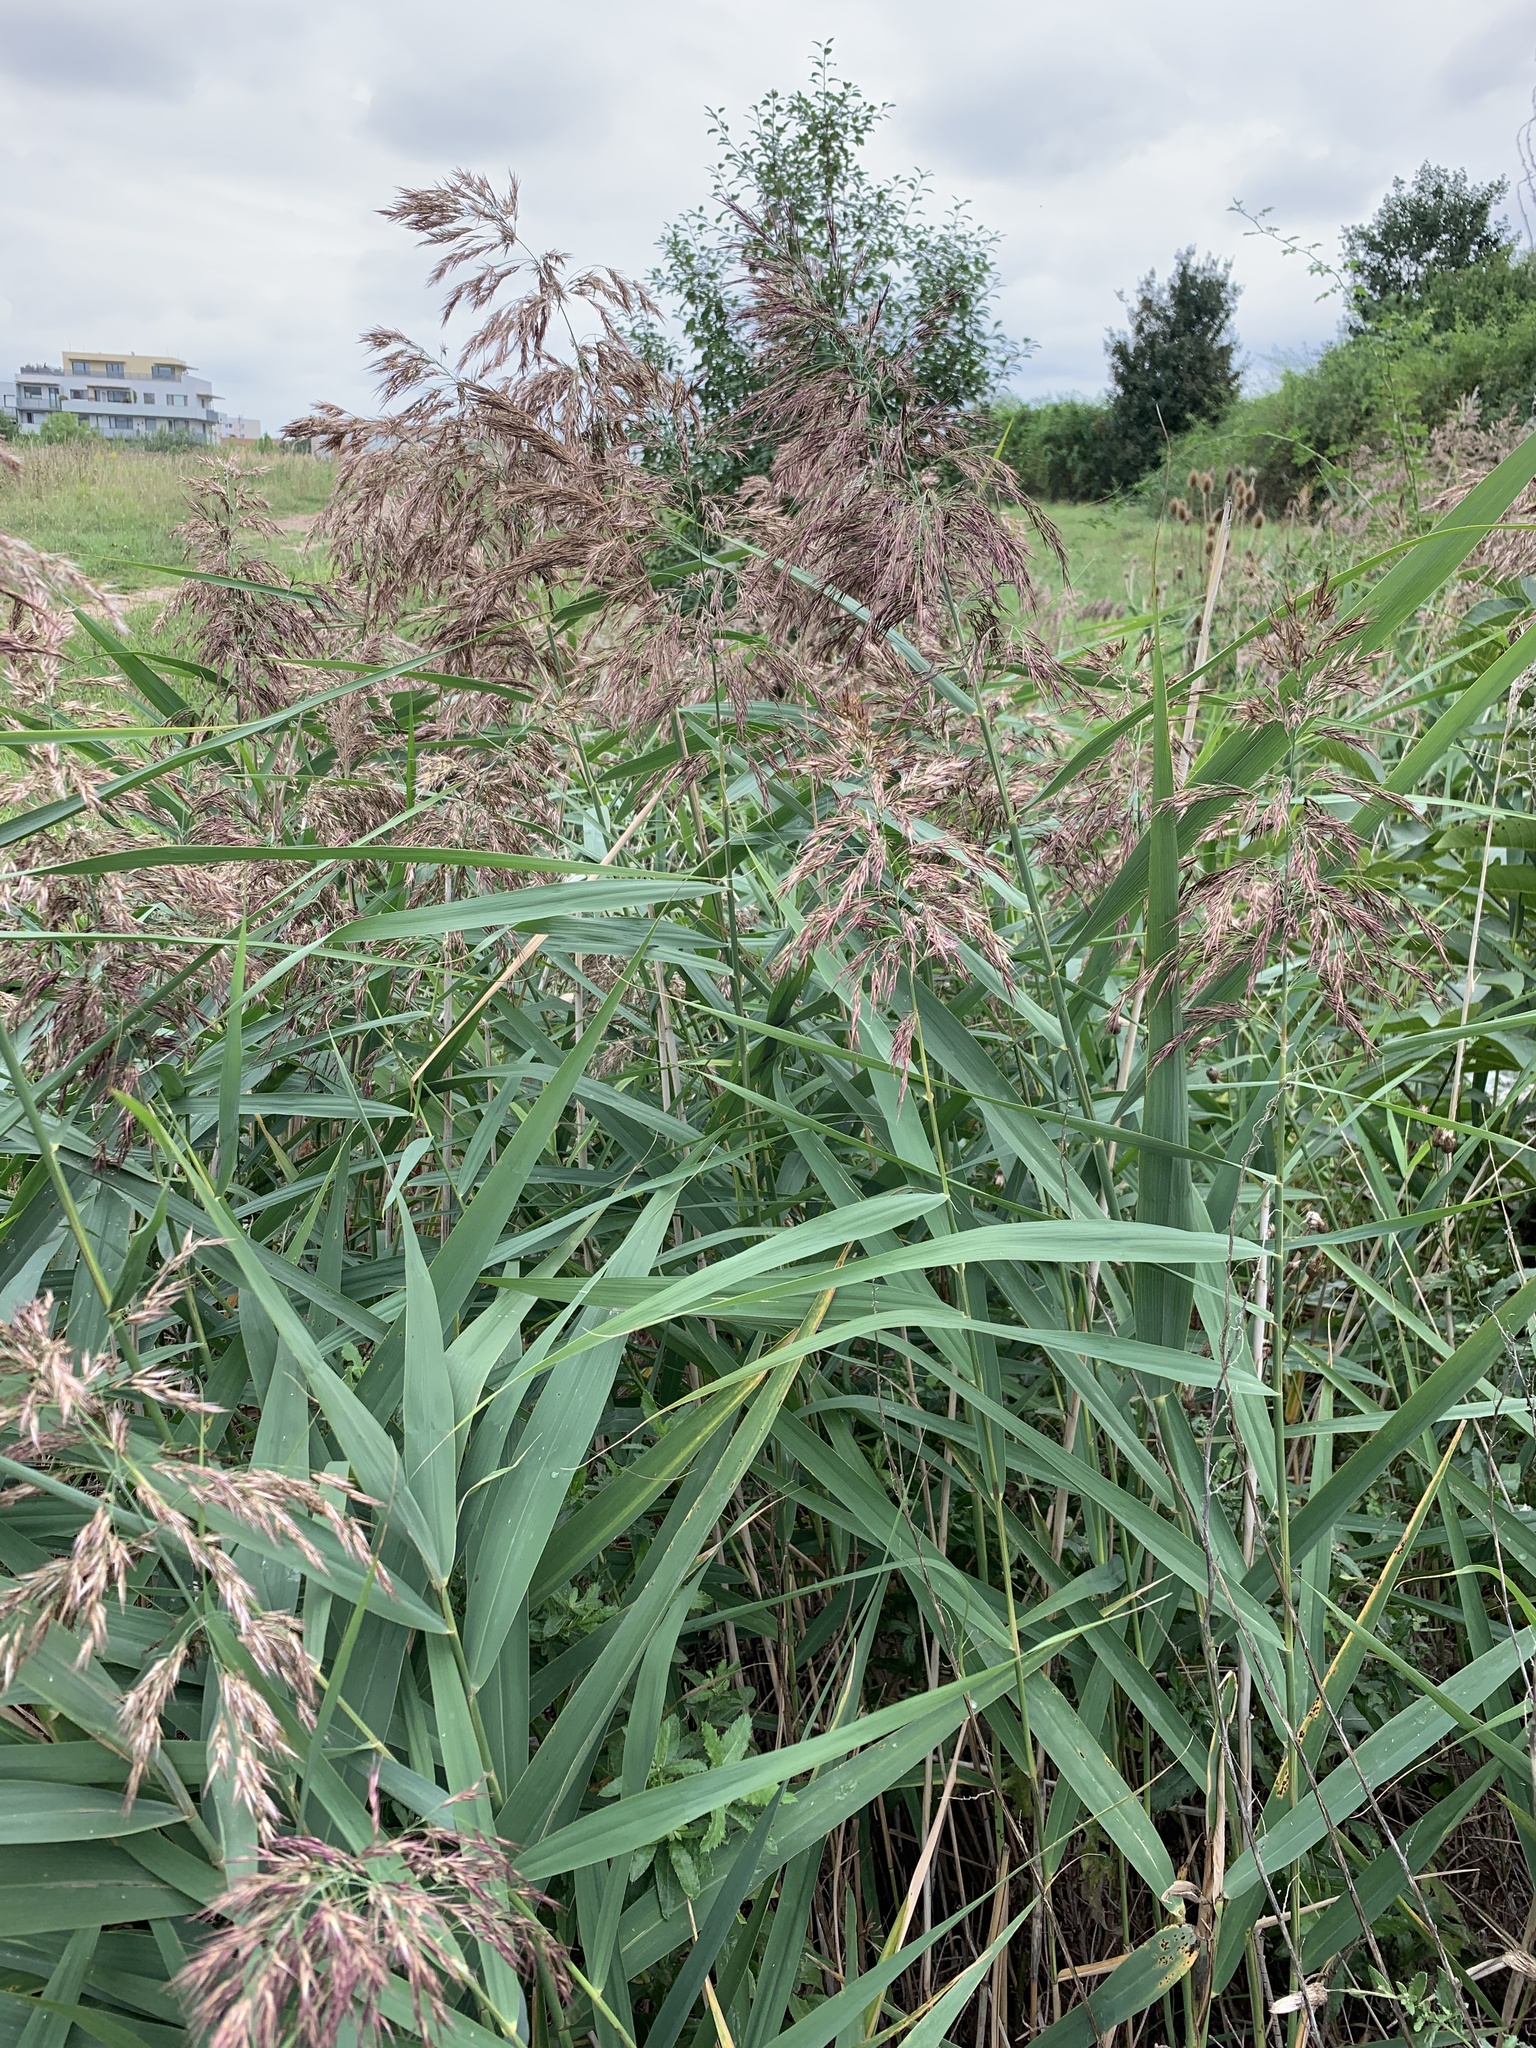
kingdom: Plantae
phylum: Tracheophyta
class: Liliopsida
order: Poales
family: Poaceae
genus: Phragmites
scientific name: Phragmites australis
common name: Common reed
